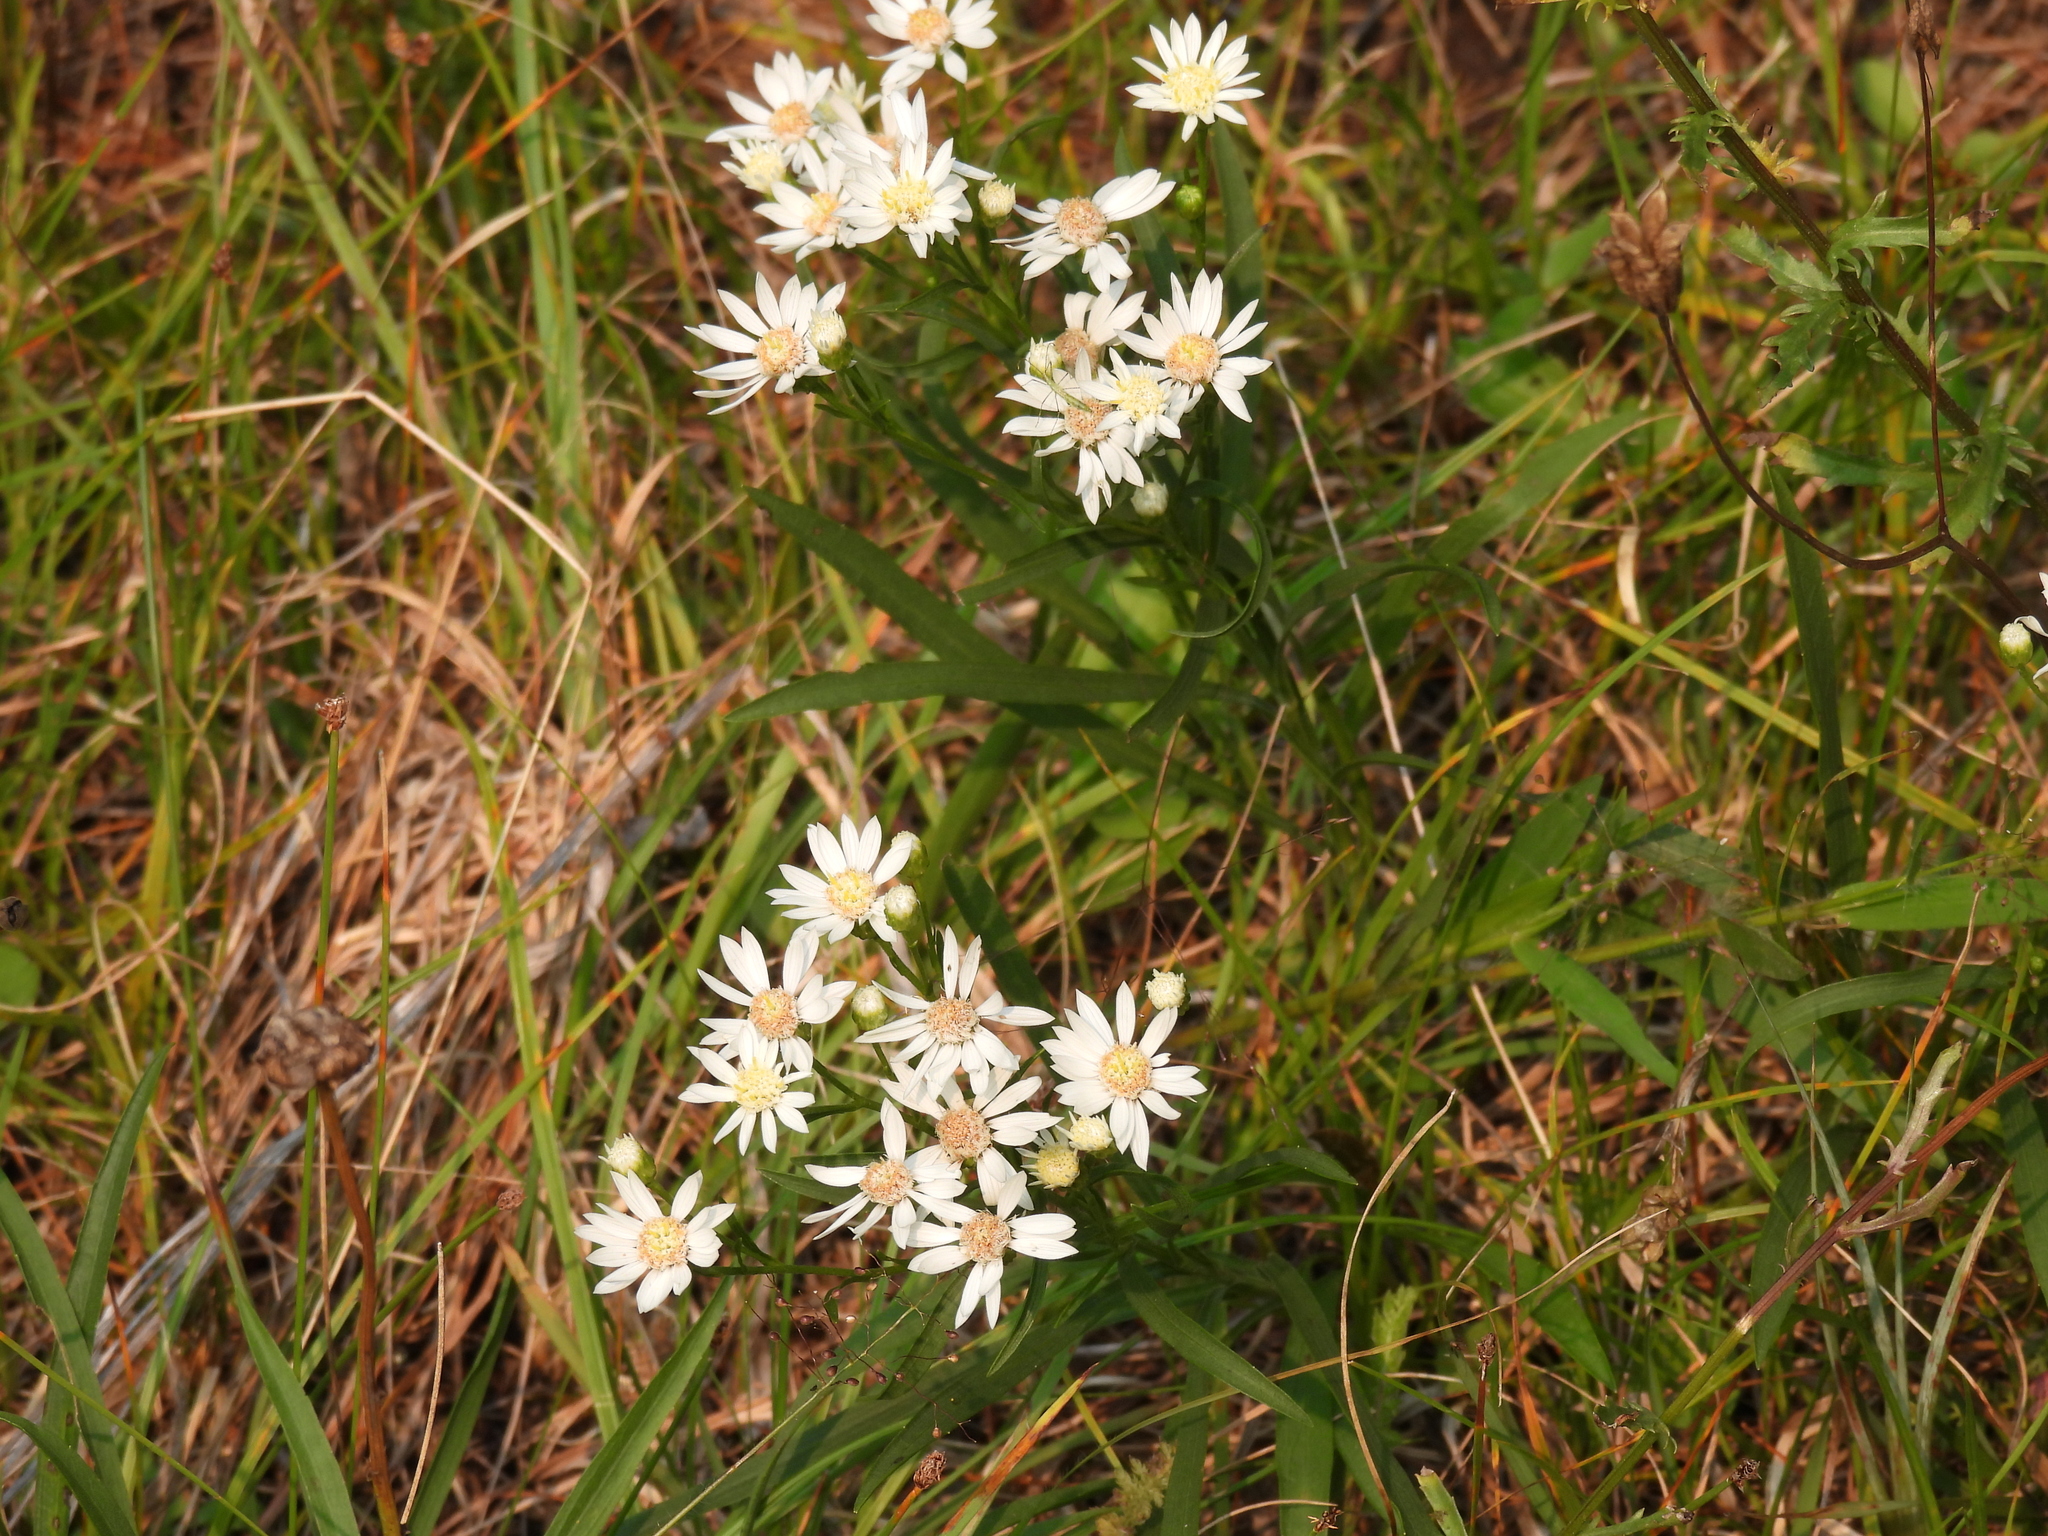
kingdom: Plantae
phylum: Tracheophyta
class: Magnoliopsida
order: Asterales
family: Asteraceae
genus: Solidago
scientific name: Solidago ptarmicoides
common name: White flat-top goldenrod
